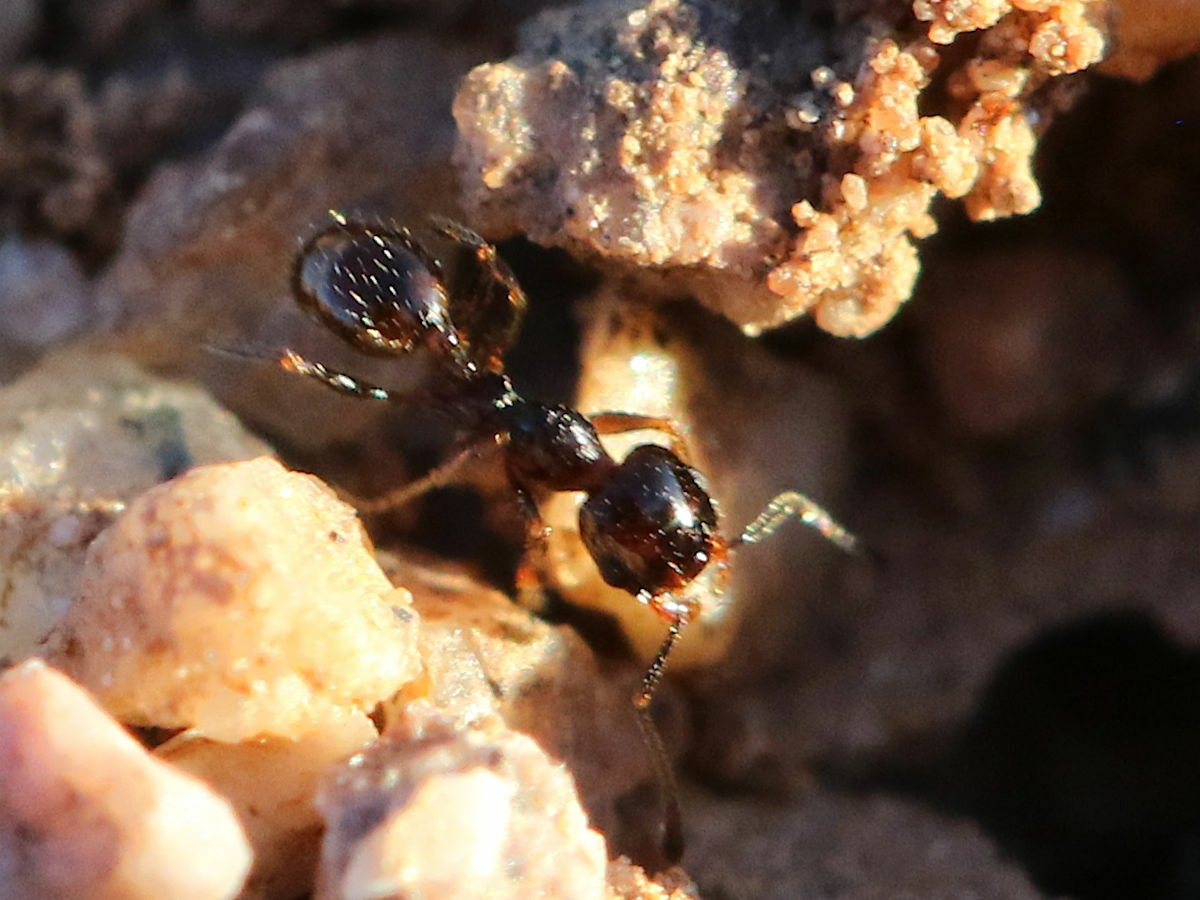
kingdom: Animalia
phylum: Arthropoda
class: Insecta
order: Hymenoptera
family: Formicidae
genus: Pheidole
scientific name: Pheidole xerophila
